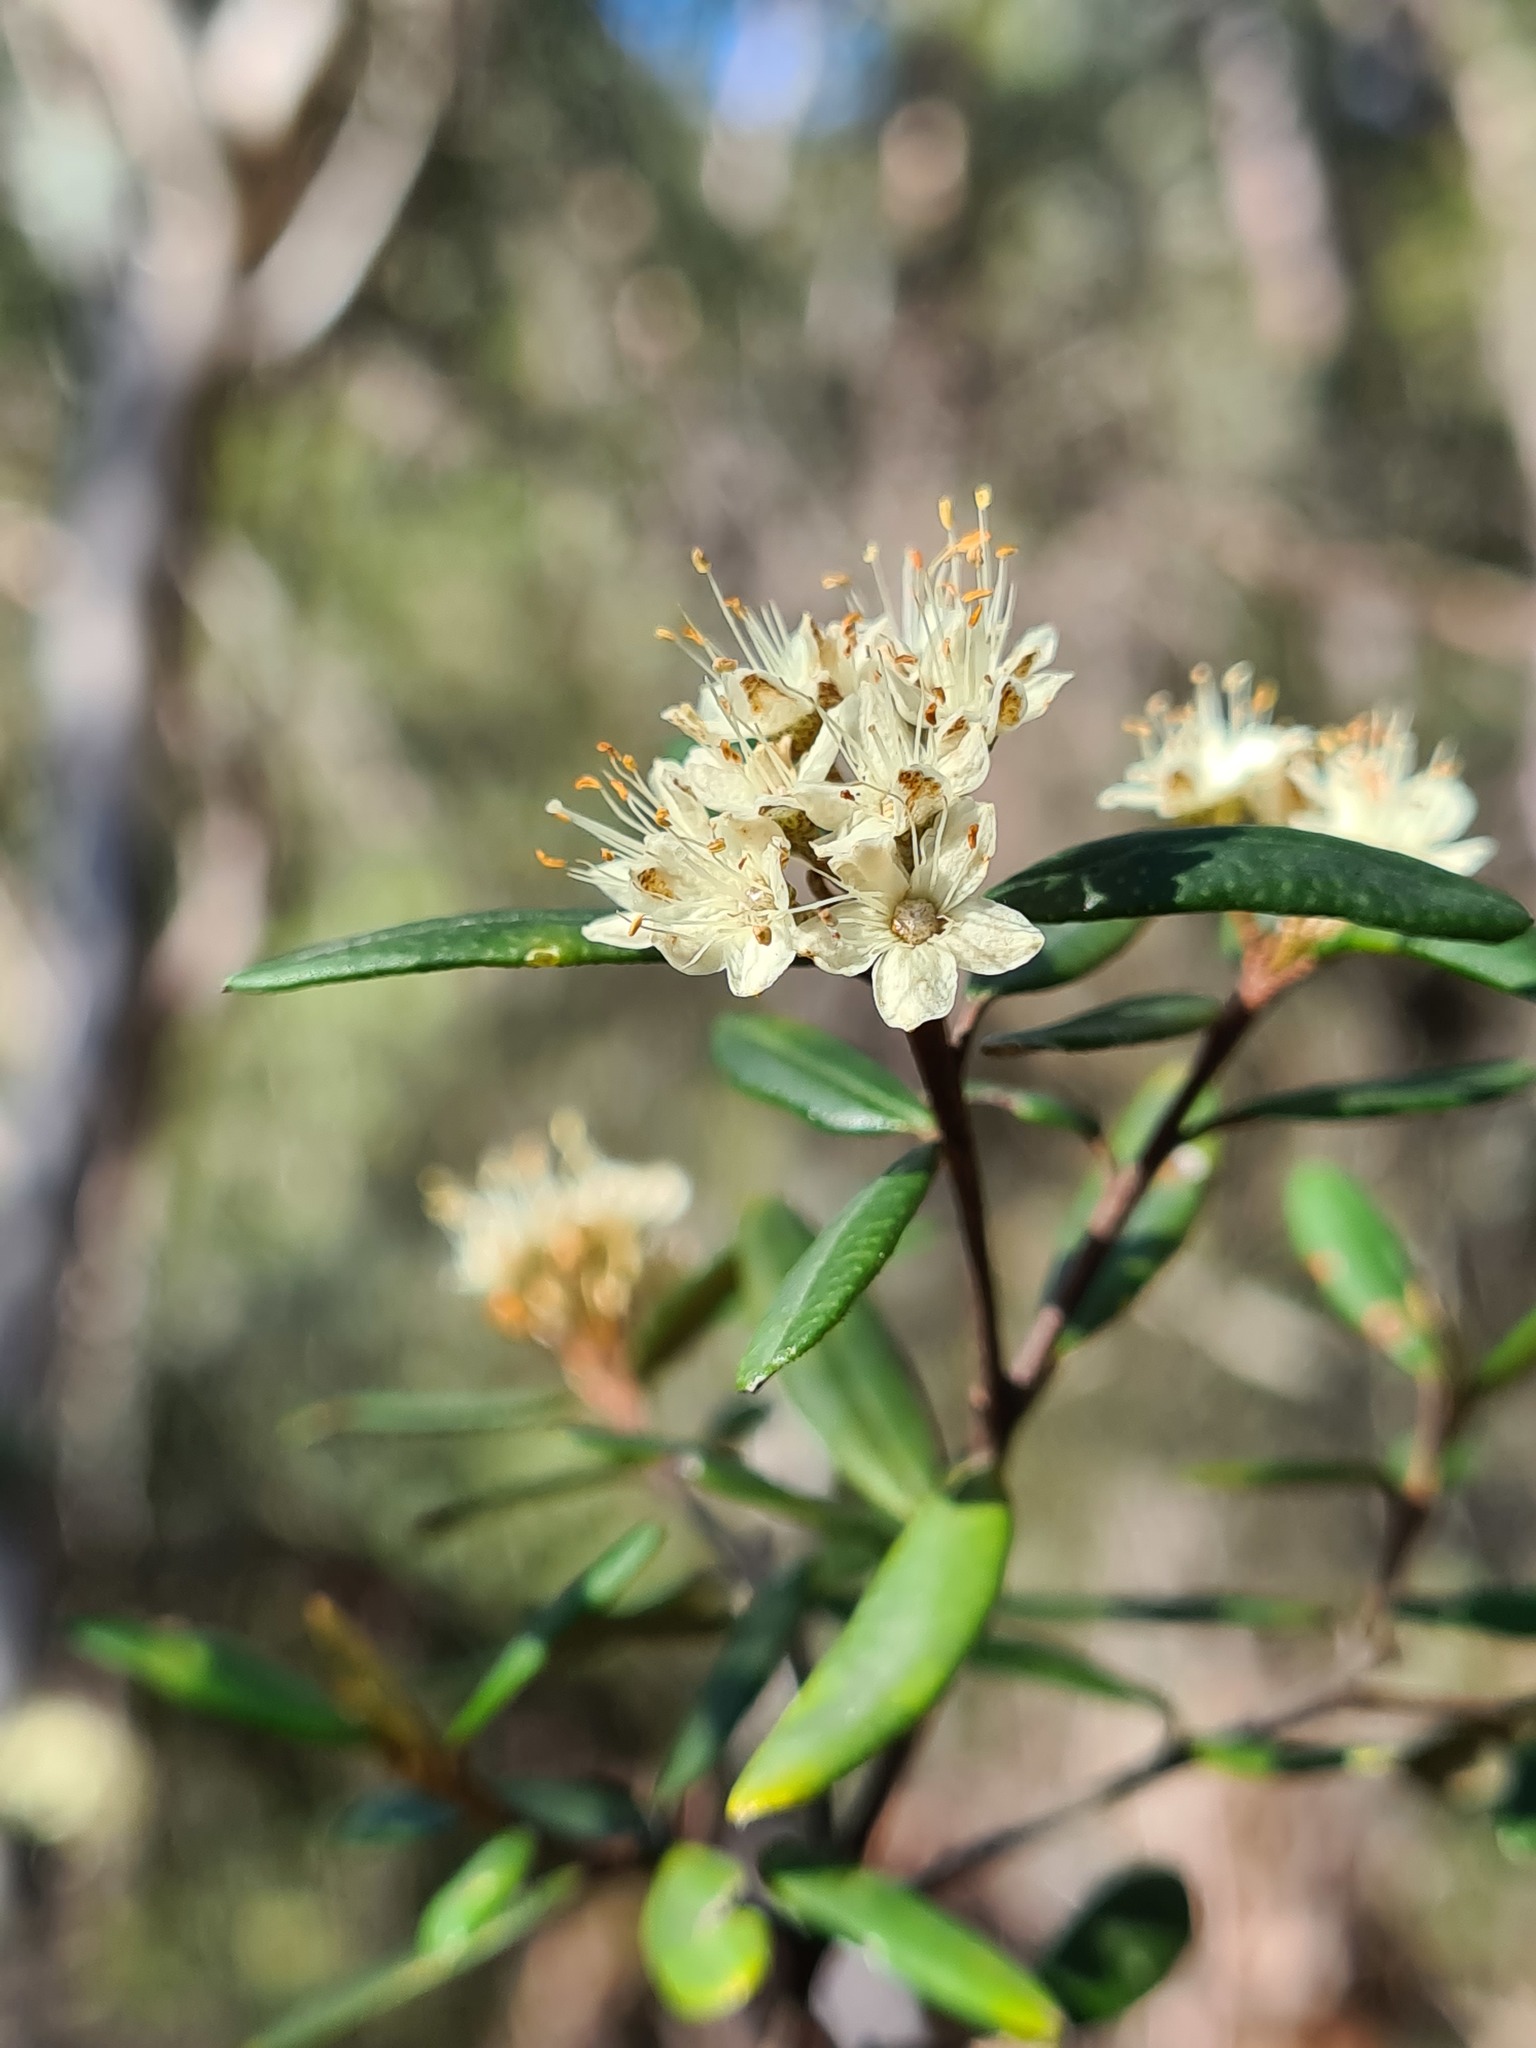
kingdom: Plantae
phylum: Tracheophyta
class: Magnoliopsida
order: Sapindales
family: Rutaceae
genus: Phebalium
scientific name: Phebalium squamulosum
